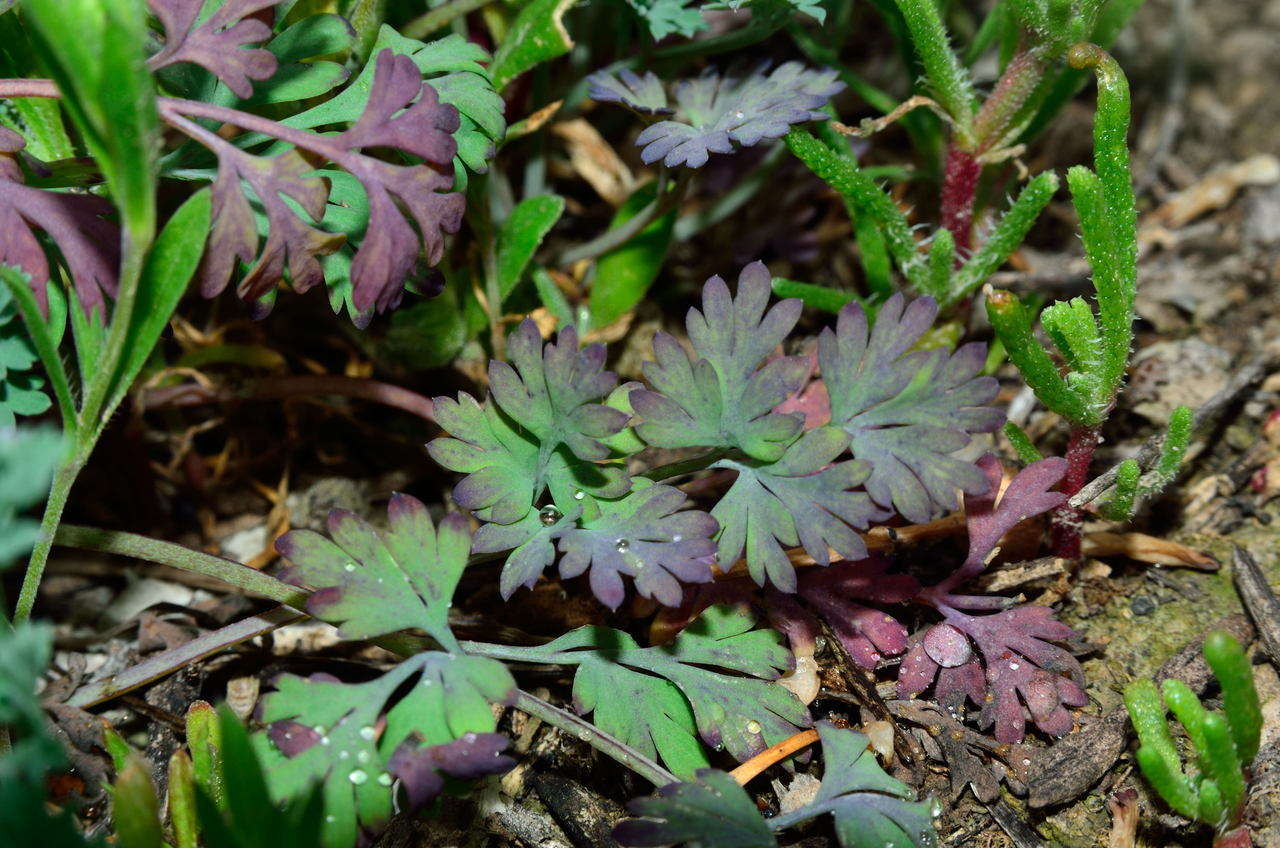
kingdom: Plantae
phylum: Tracheophyta
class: Magnoliopsida
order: Ranunculales
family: Papaveraceae
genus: Fumaria
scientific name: Fumaria bastardii
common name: Tall ramping-fumitory
